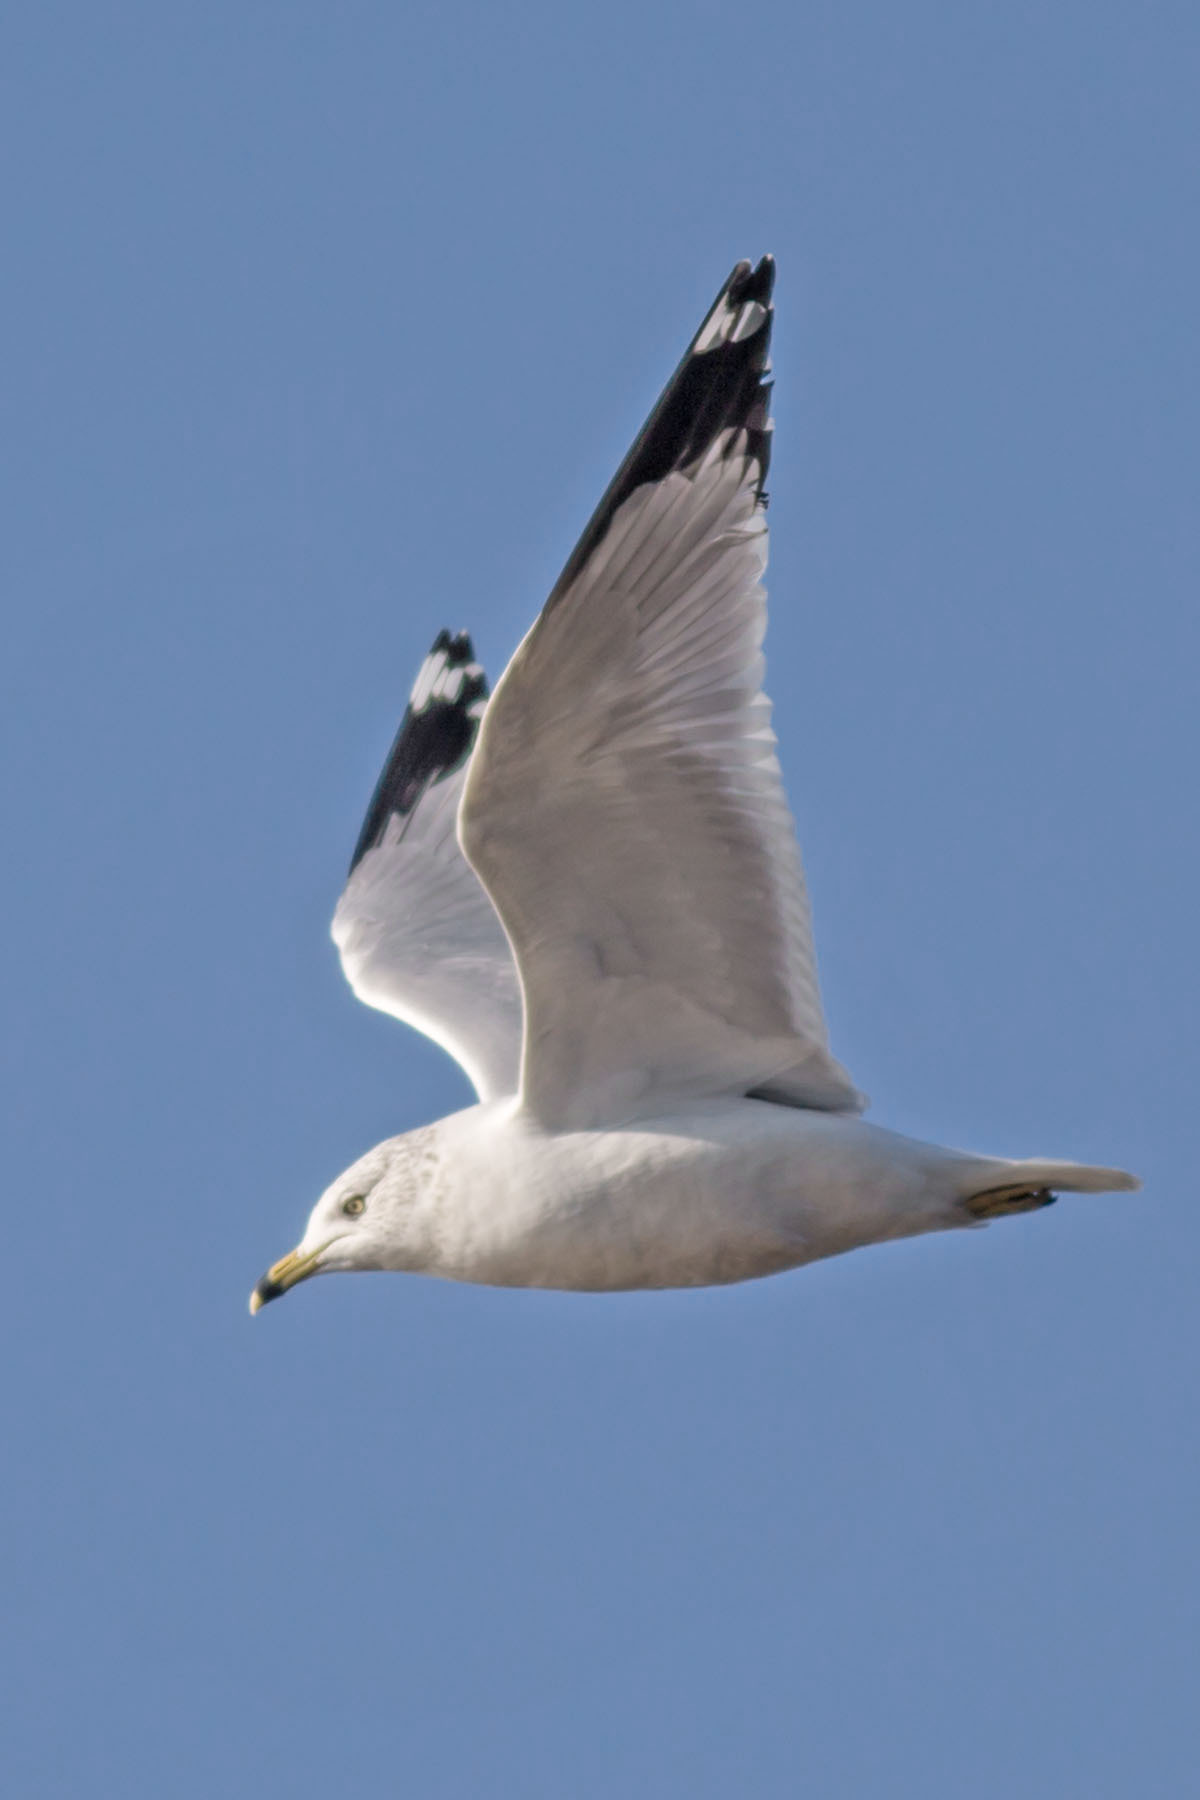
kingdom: Animalia
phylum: Chordata
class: Aves
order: Charadriiformes
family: Laridae
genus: Larus
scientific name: Larus delawarensis
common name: Ring-billed gull
